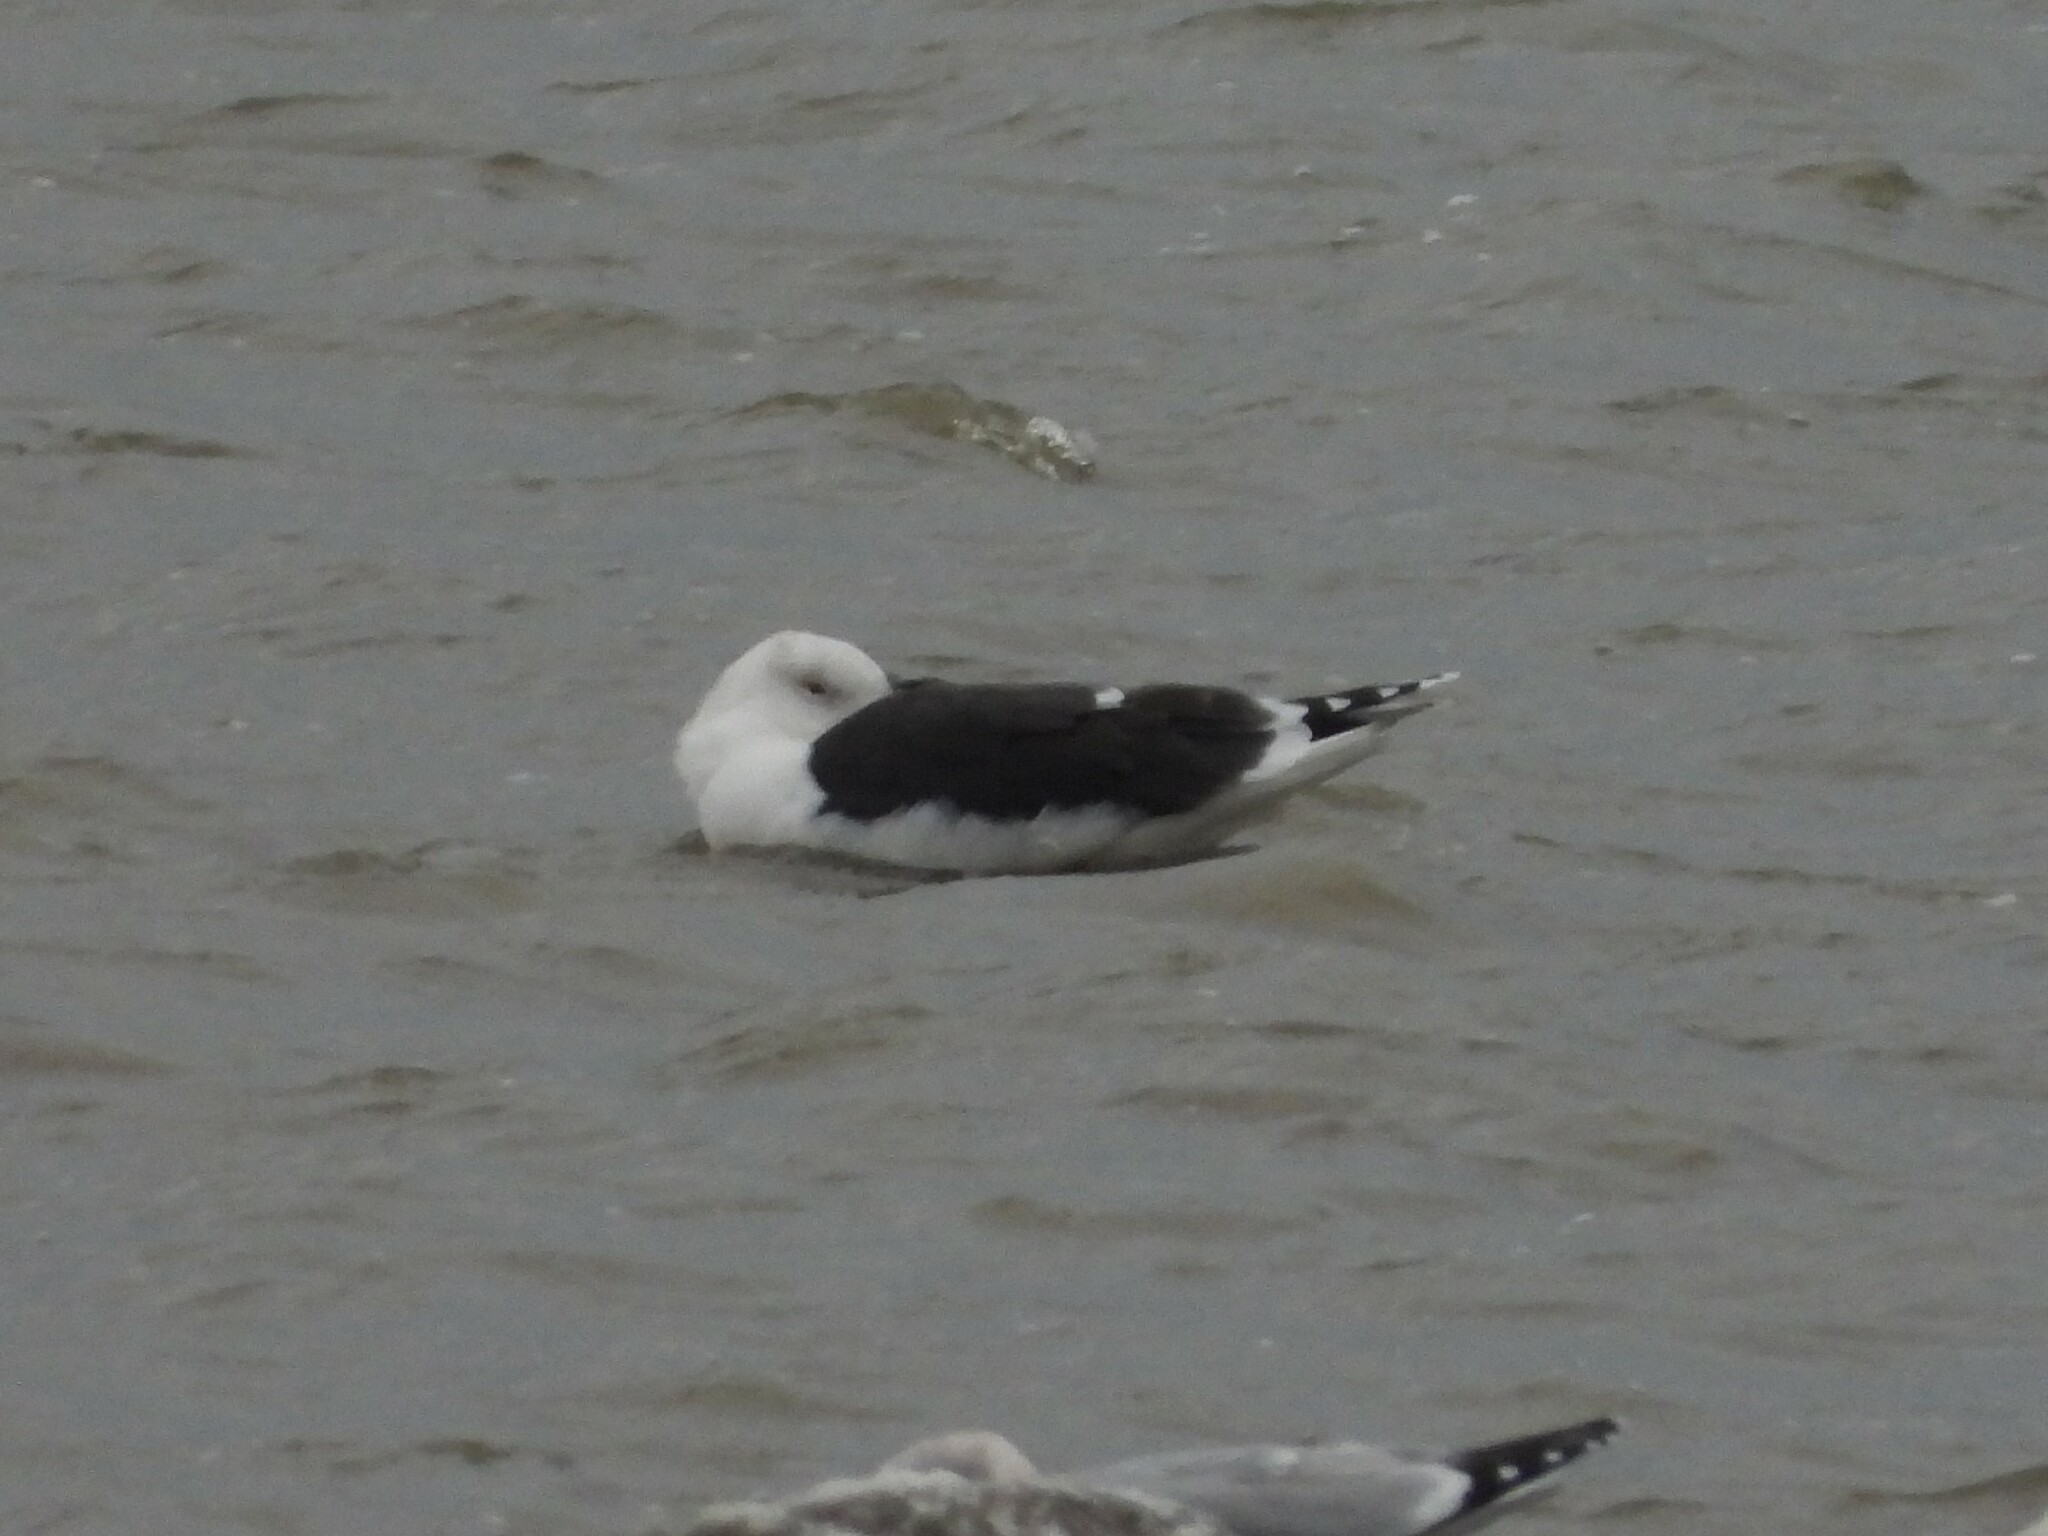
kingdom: Animalia
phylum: Chordata
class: Aves
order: Charadriiformes
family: Laridae
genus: Larus
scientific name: Larus marinus
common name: Great black-backed gull
